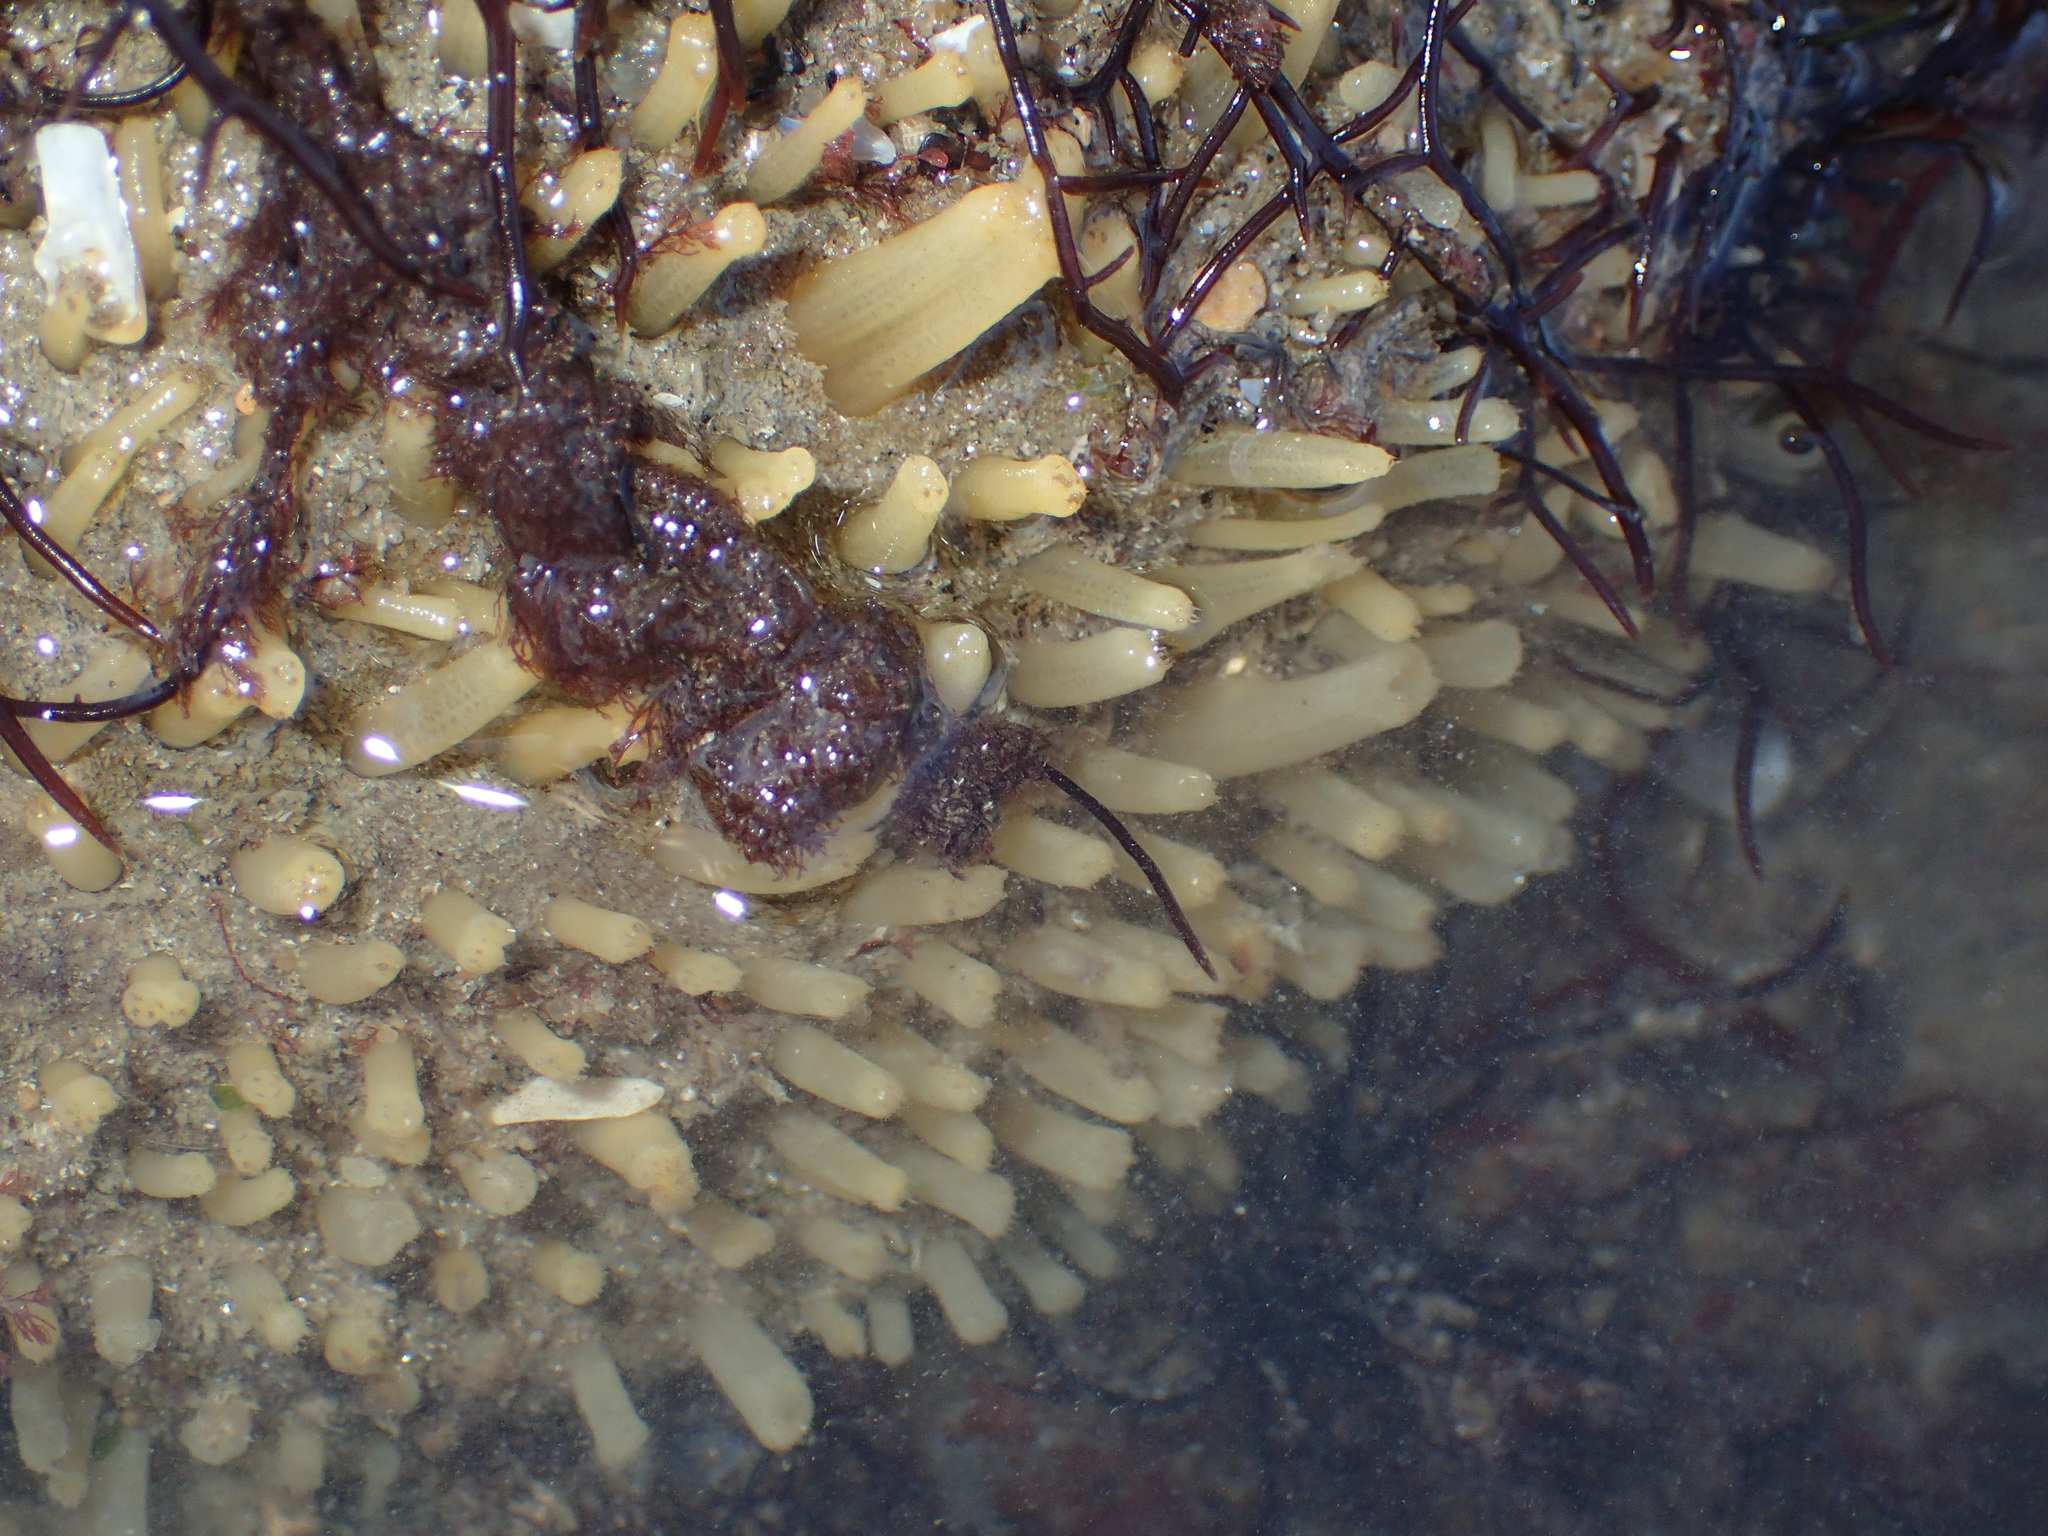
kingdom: Animalia
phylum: Porifera
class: Demospongiae
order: Polymastiida
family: Polymastiidae
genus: Polymastia
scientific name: Polymastia penicillus
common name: Chimney sponge
